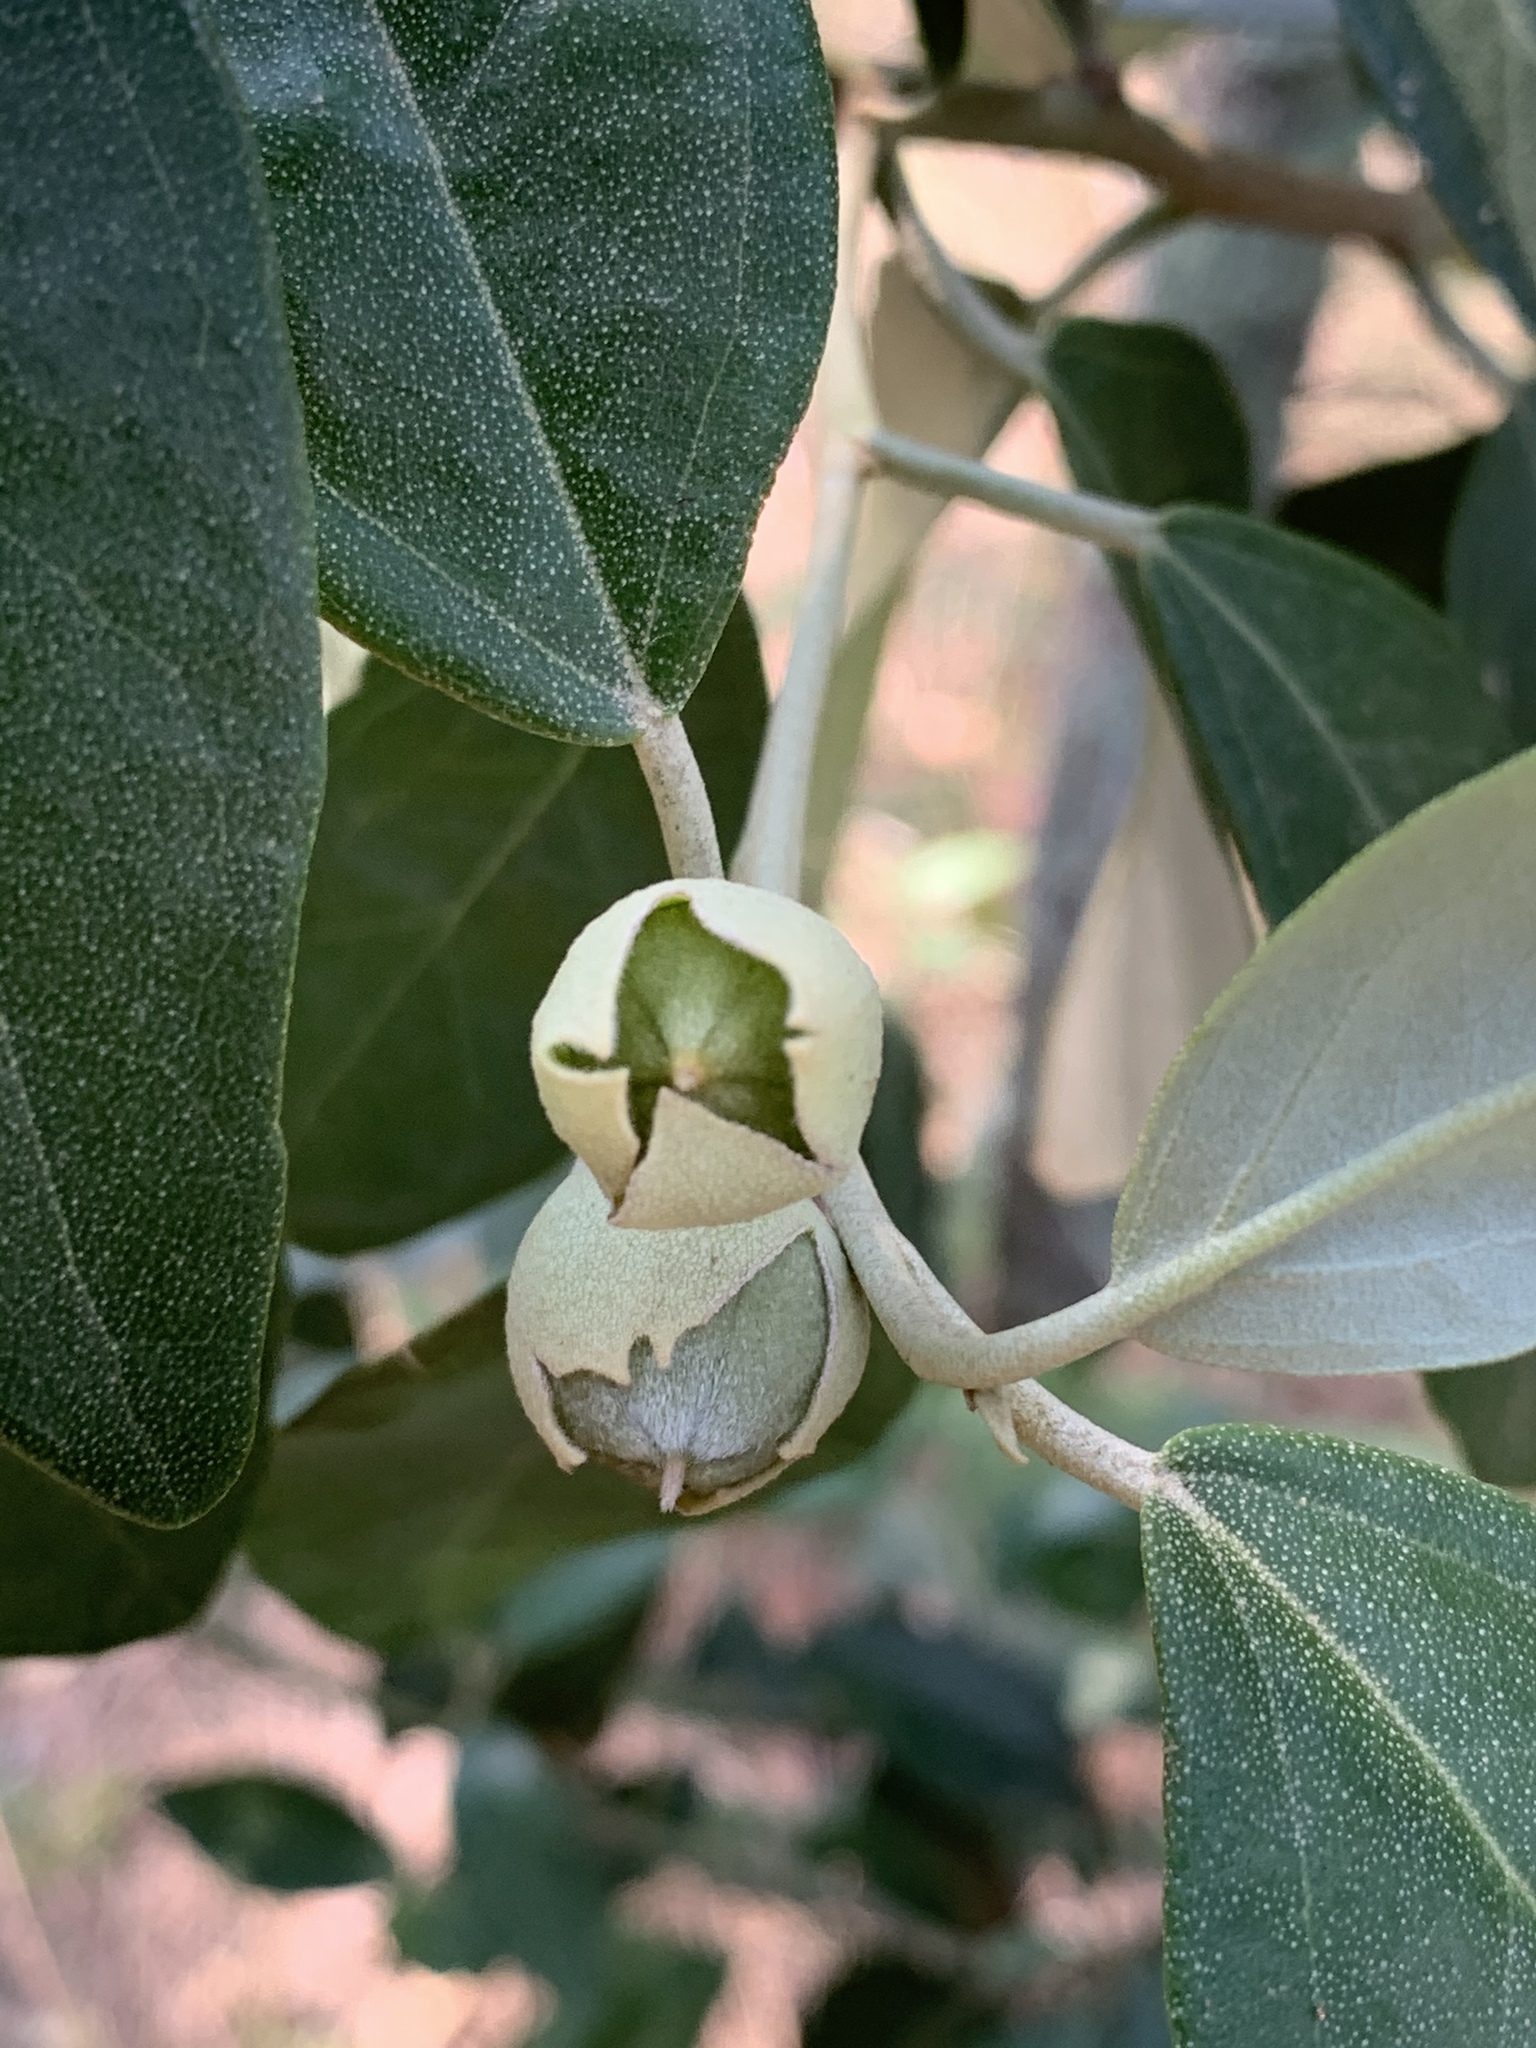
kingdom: Plantae
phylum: Tracheophyta
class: Magnoliopsida
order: Malvales
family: Malvaceae
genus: Lagunaria
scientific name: Lagunaria patersonia
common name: Cow itch tree
